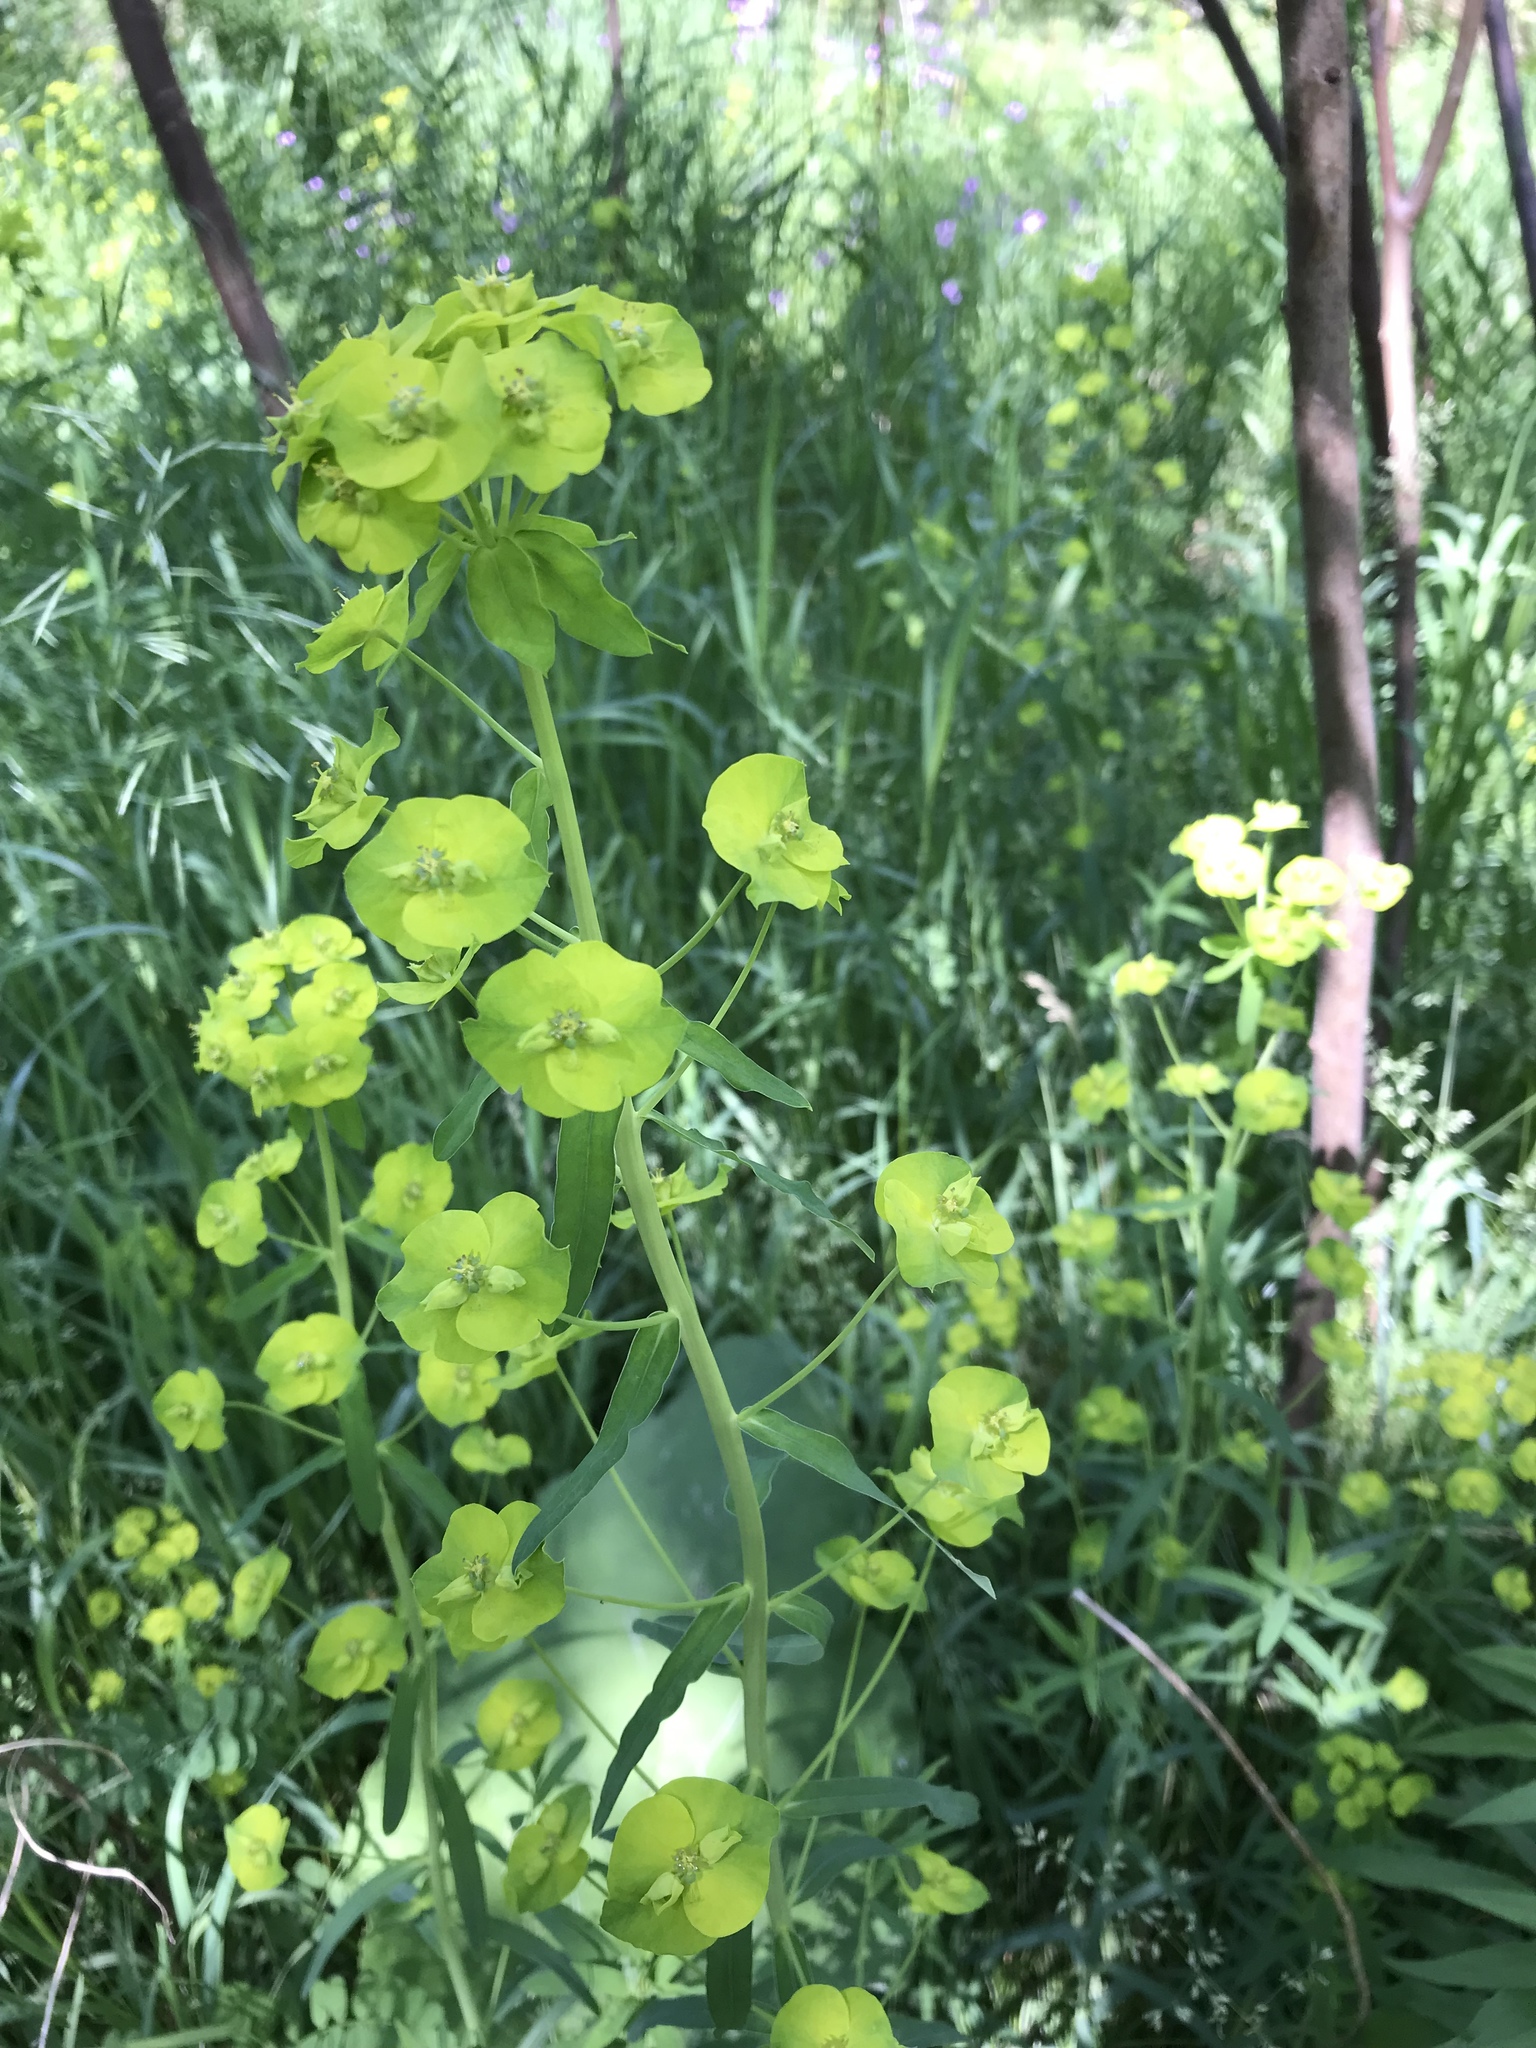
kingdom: Plantae
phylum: Tracheophyta
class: Magnoliopsida
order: Malpighiales
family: Euphorbiaceae
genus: Euphorbia
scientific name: Euphorbia virgata
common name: Leafy spurge
